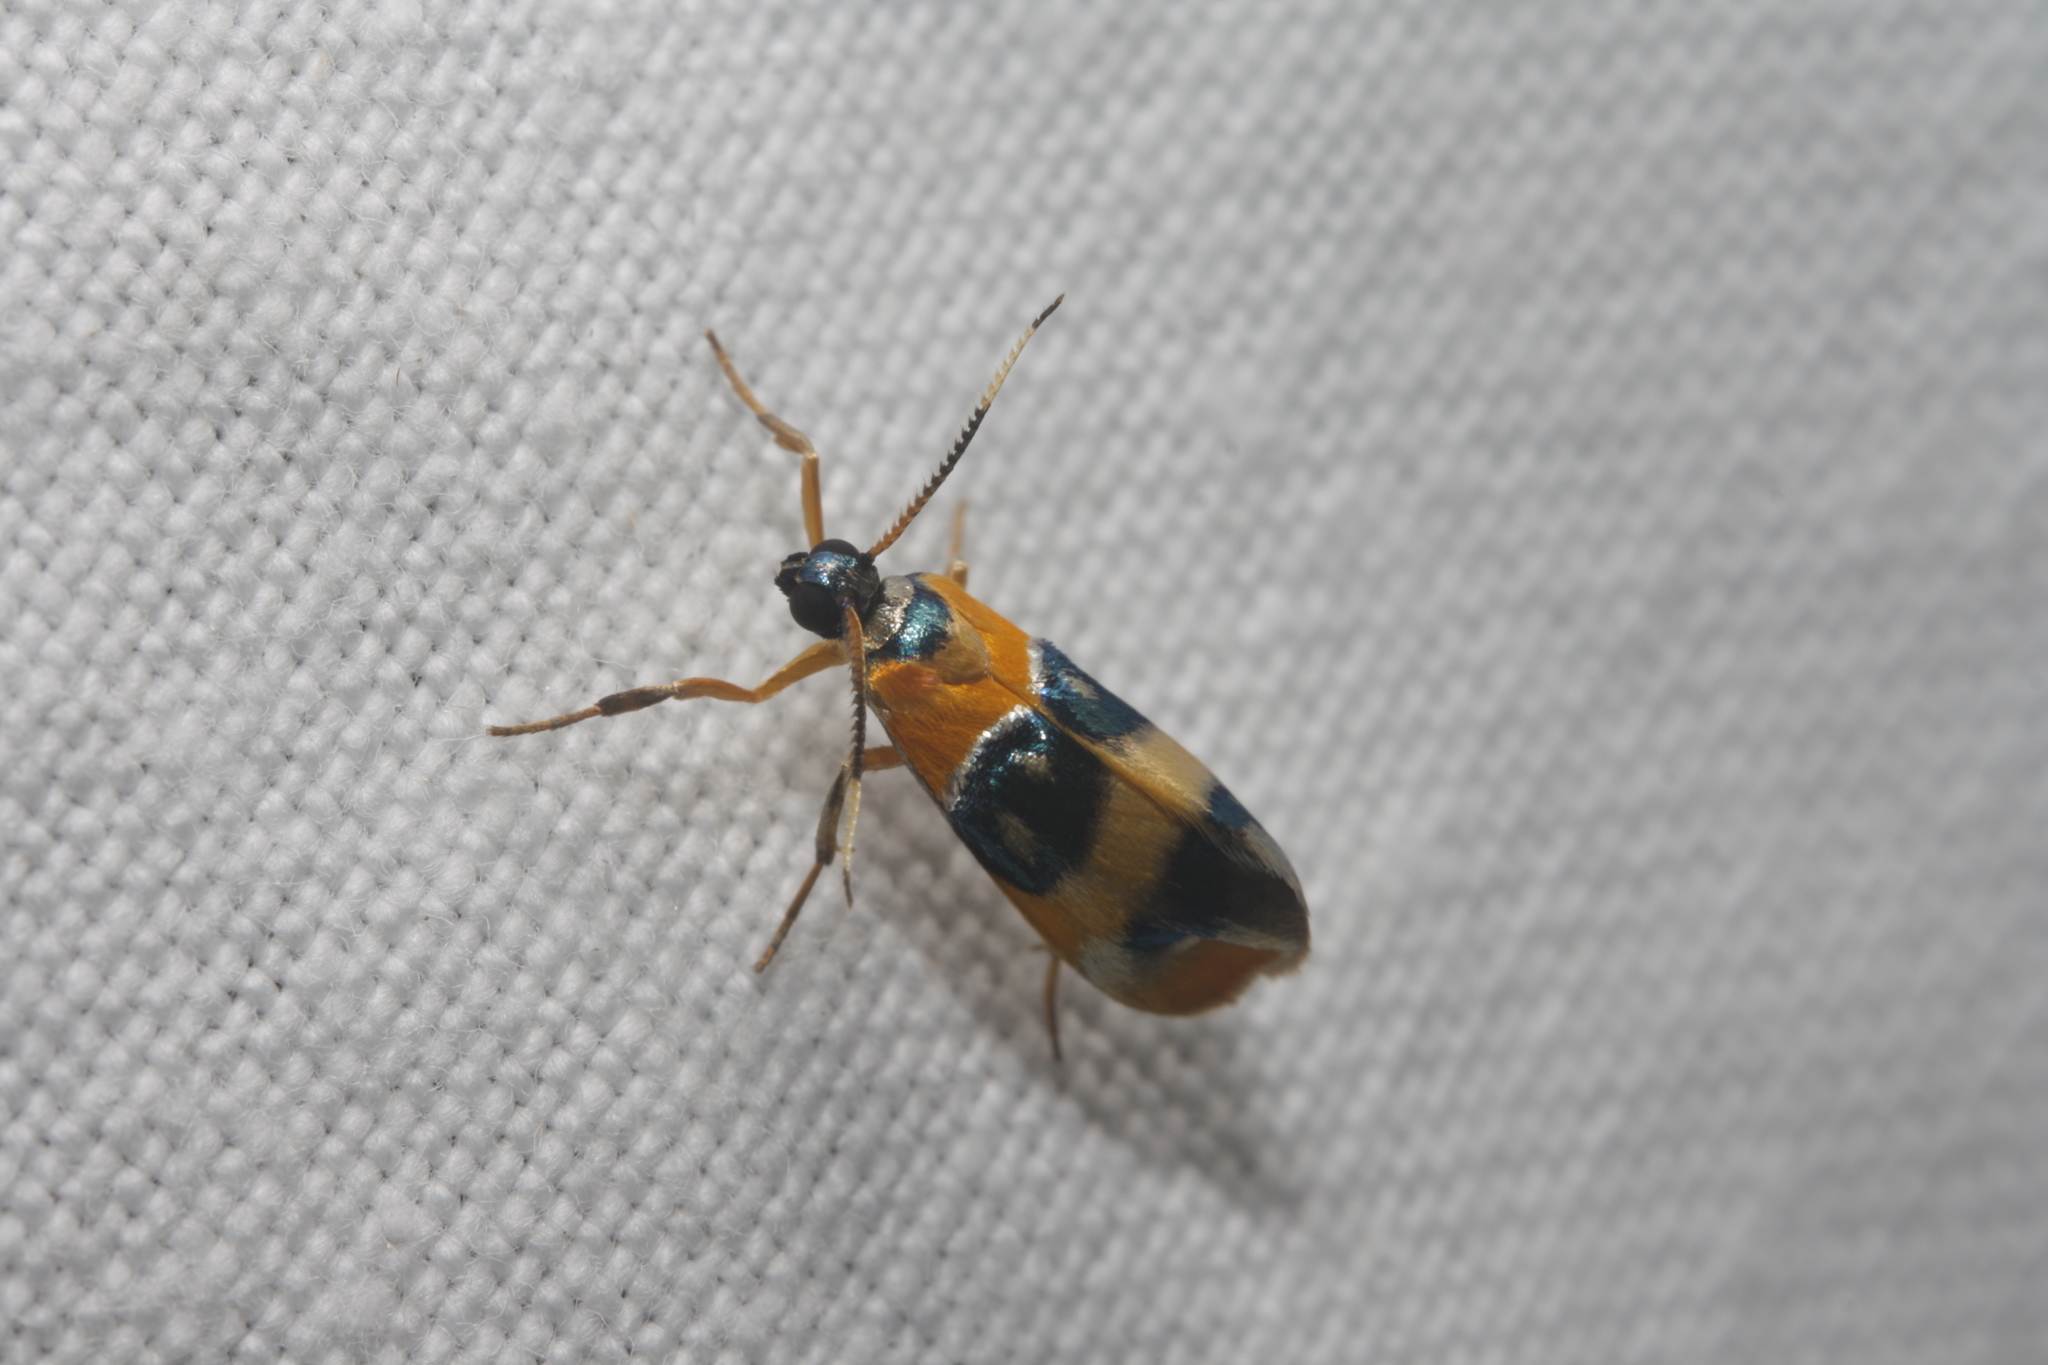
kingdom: Animalia
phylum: Arthropoda
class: Insecta
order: Lepidoptera
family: Erebidae
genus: Cisthene
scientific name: Cisthene croesus
